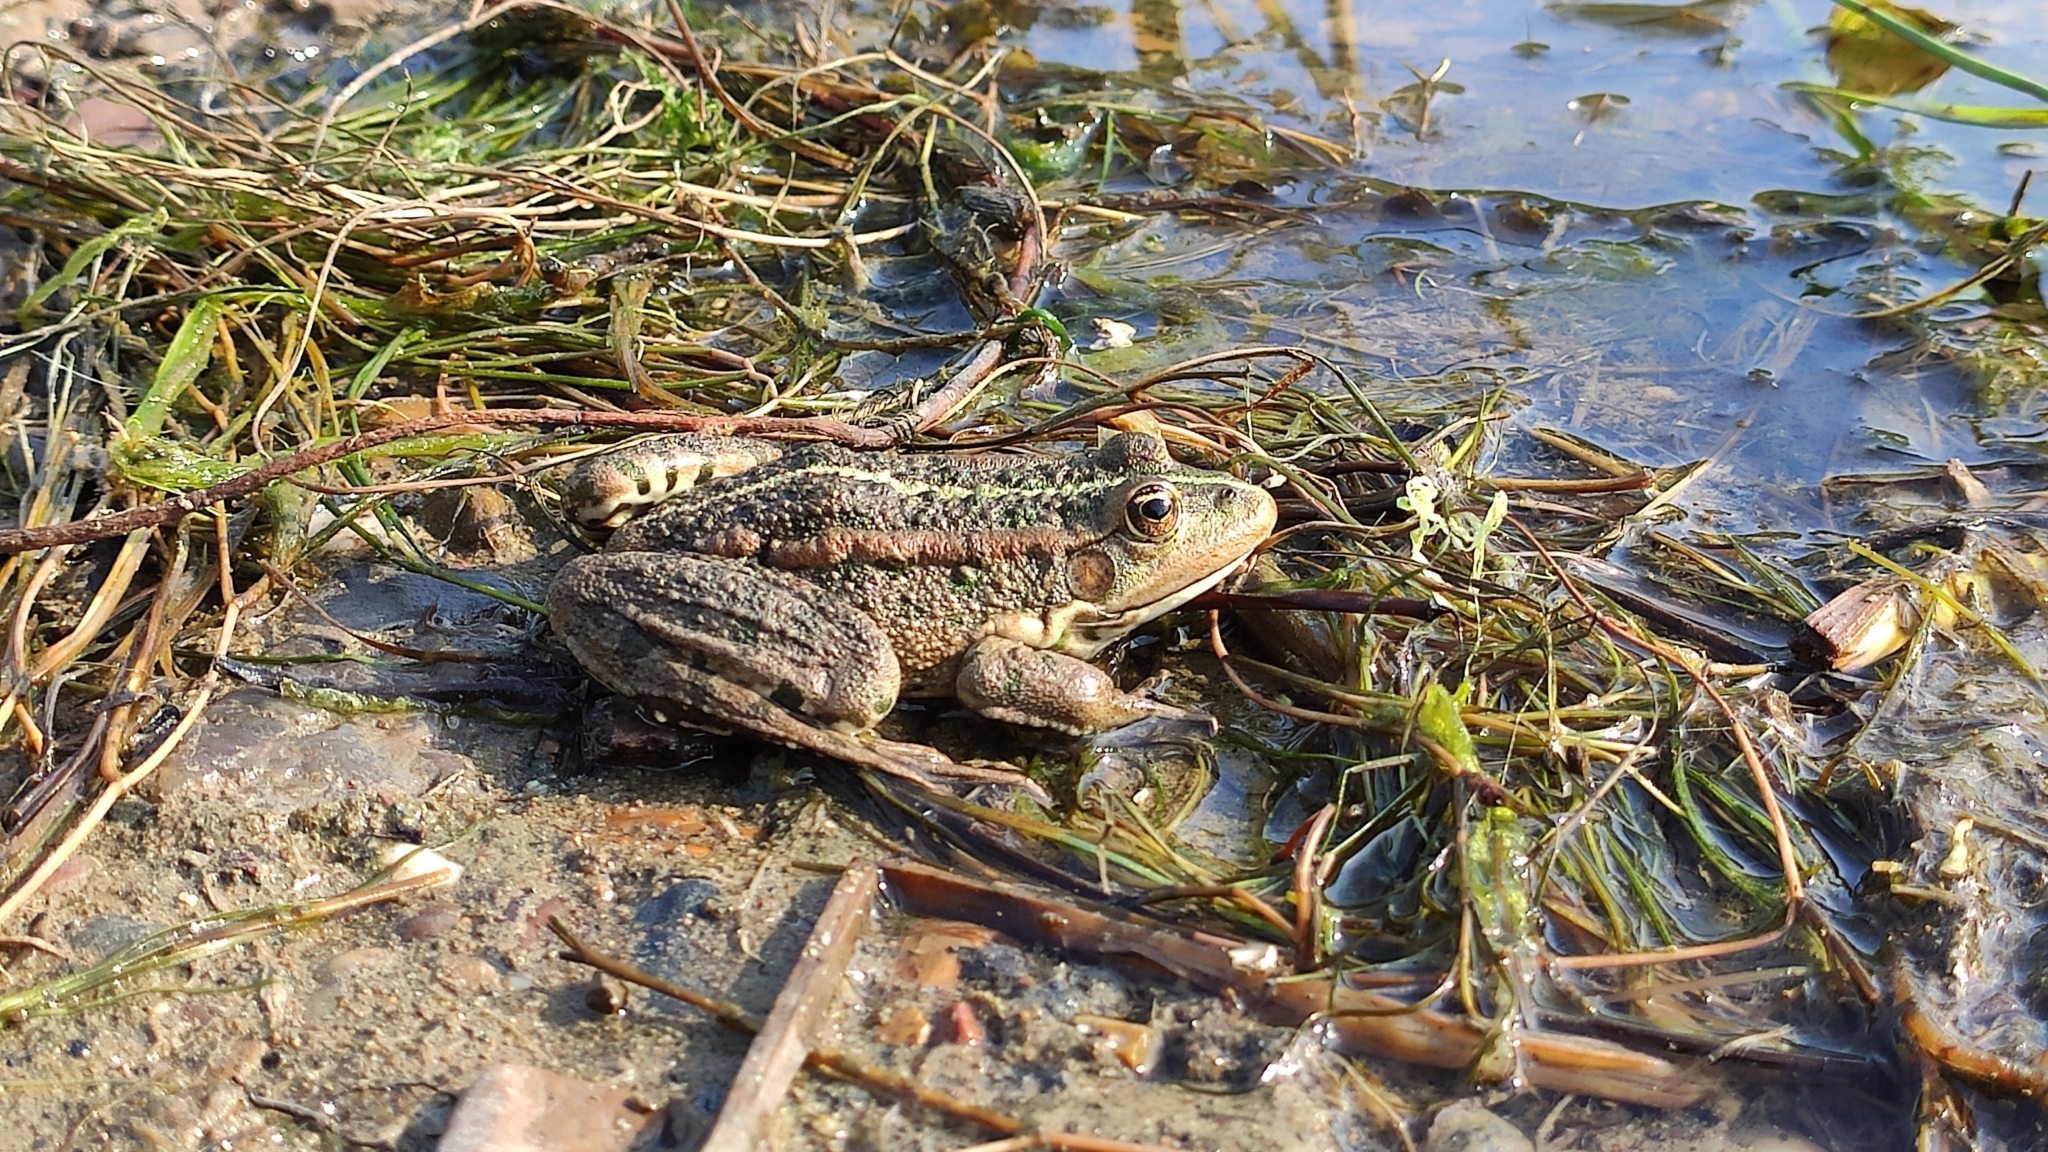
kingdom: Animalia
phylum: Chordata
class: Amphibia
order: Anura
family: Ranidae
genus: Pelophylax
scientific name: Pelophylax ridibundus
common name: Marsh frog
